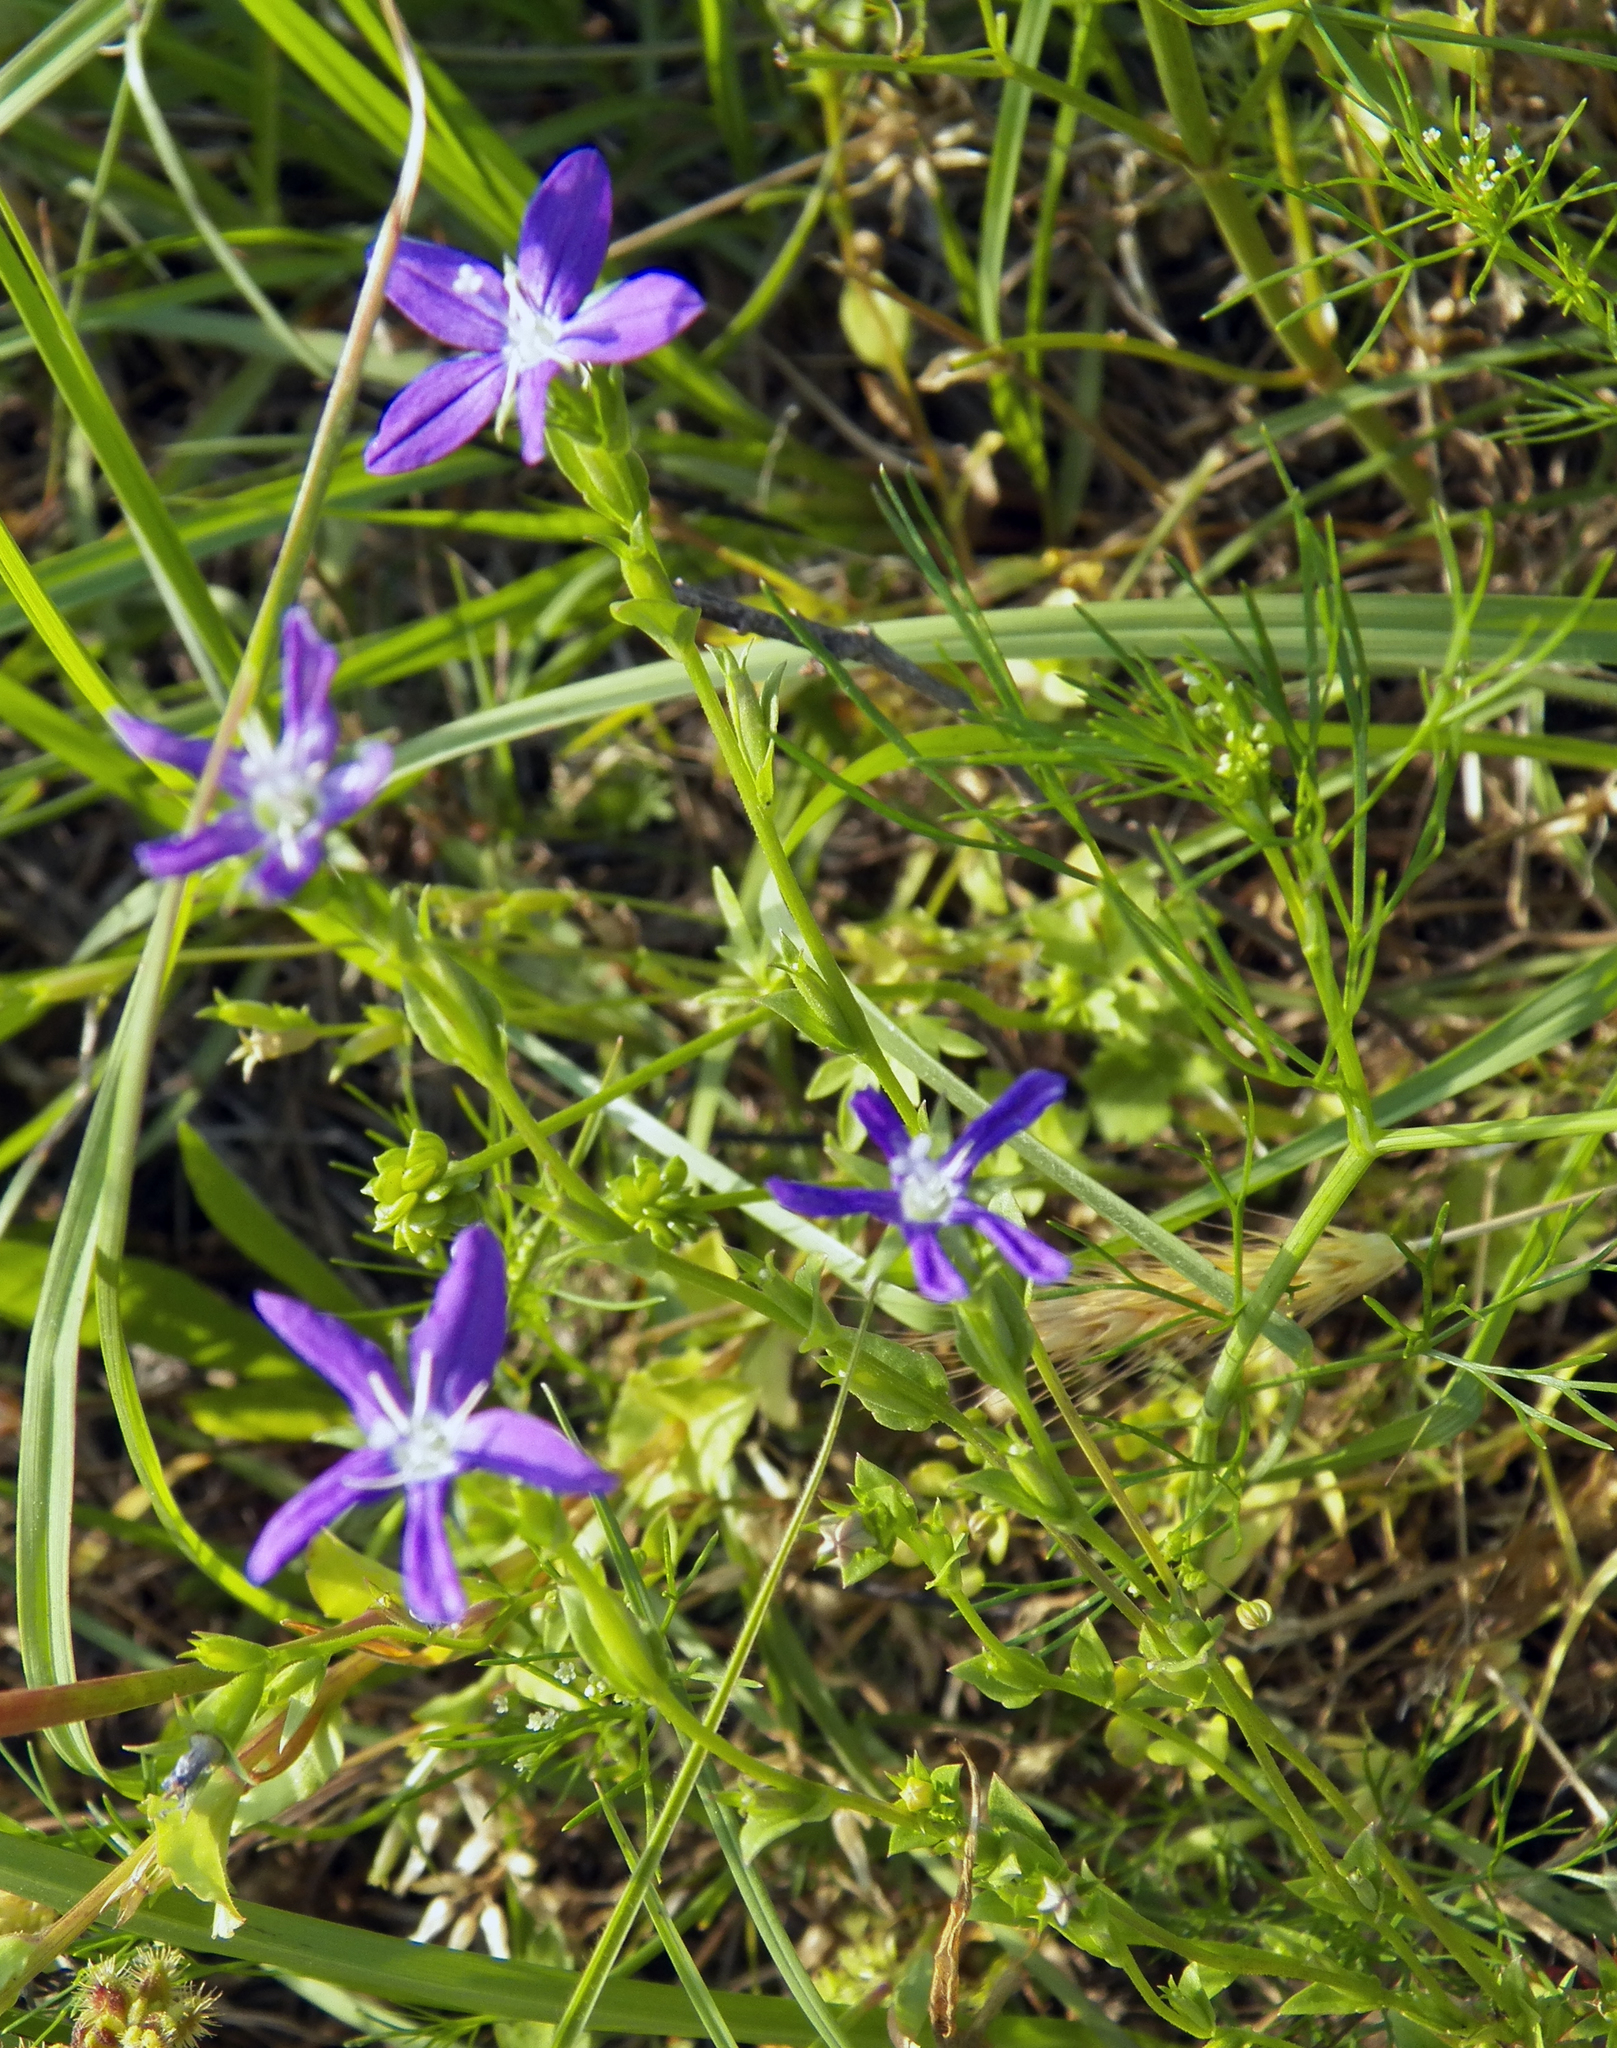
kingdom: Plantae
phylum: Tracheophyta
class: Magnoliopsida
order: Asterales
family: Campanulaceae
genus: Triodanis
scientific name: Triodanis perfoliata
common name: Clasping venus' looking-glass
